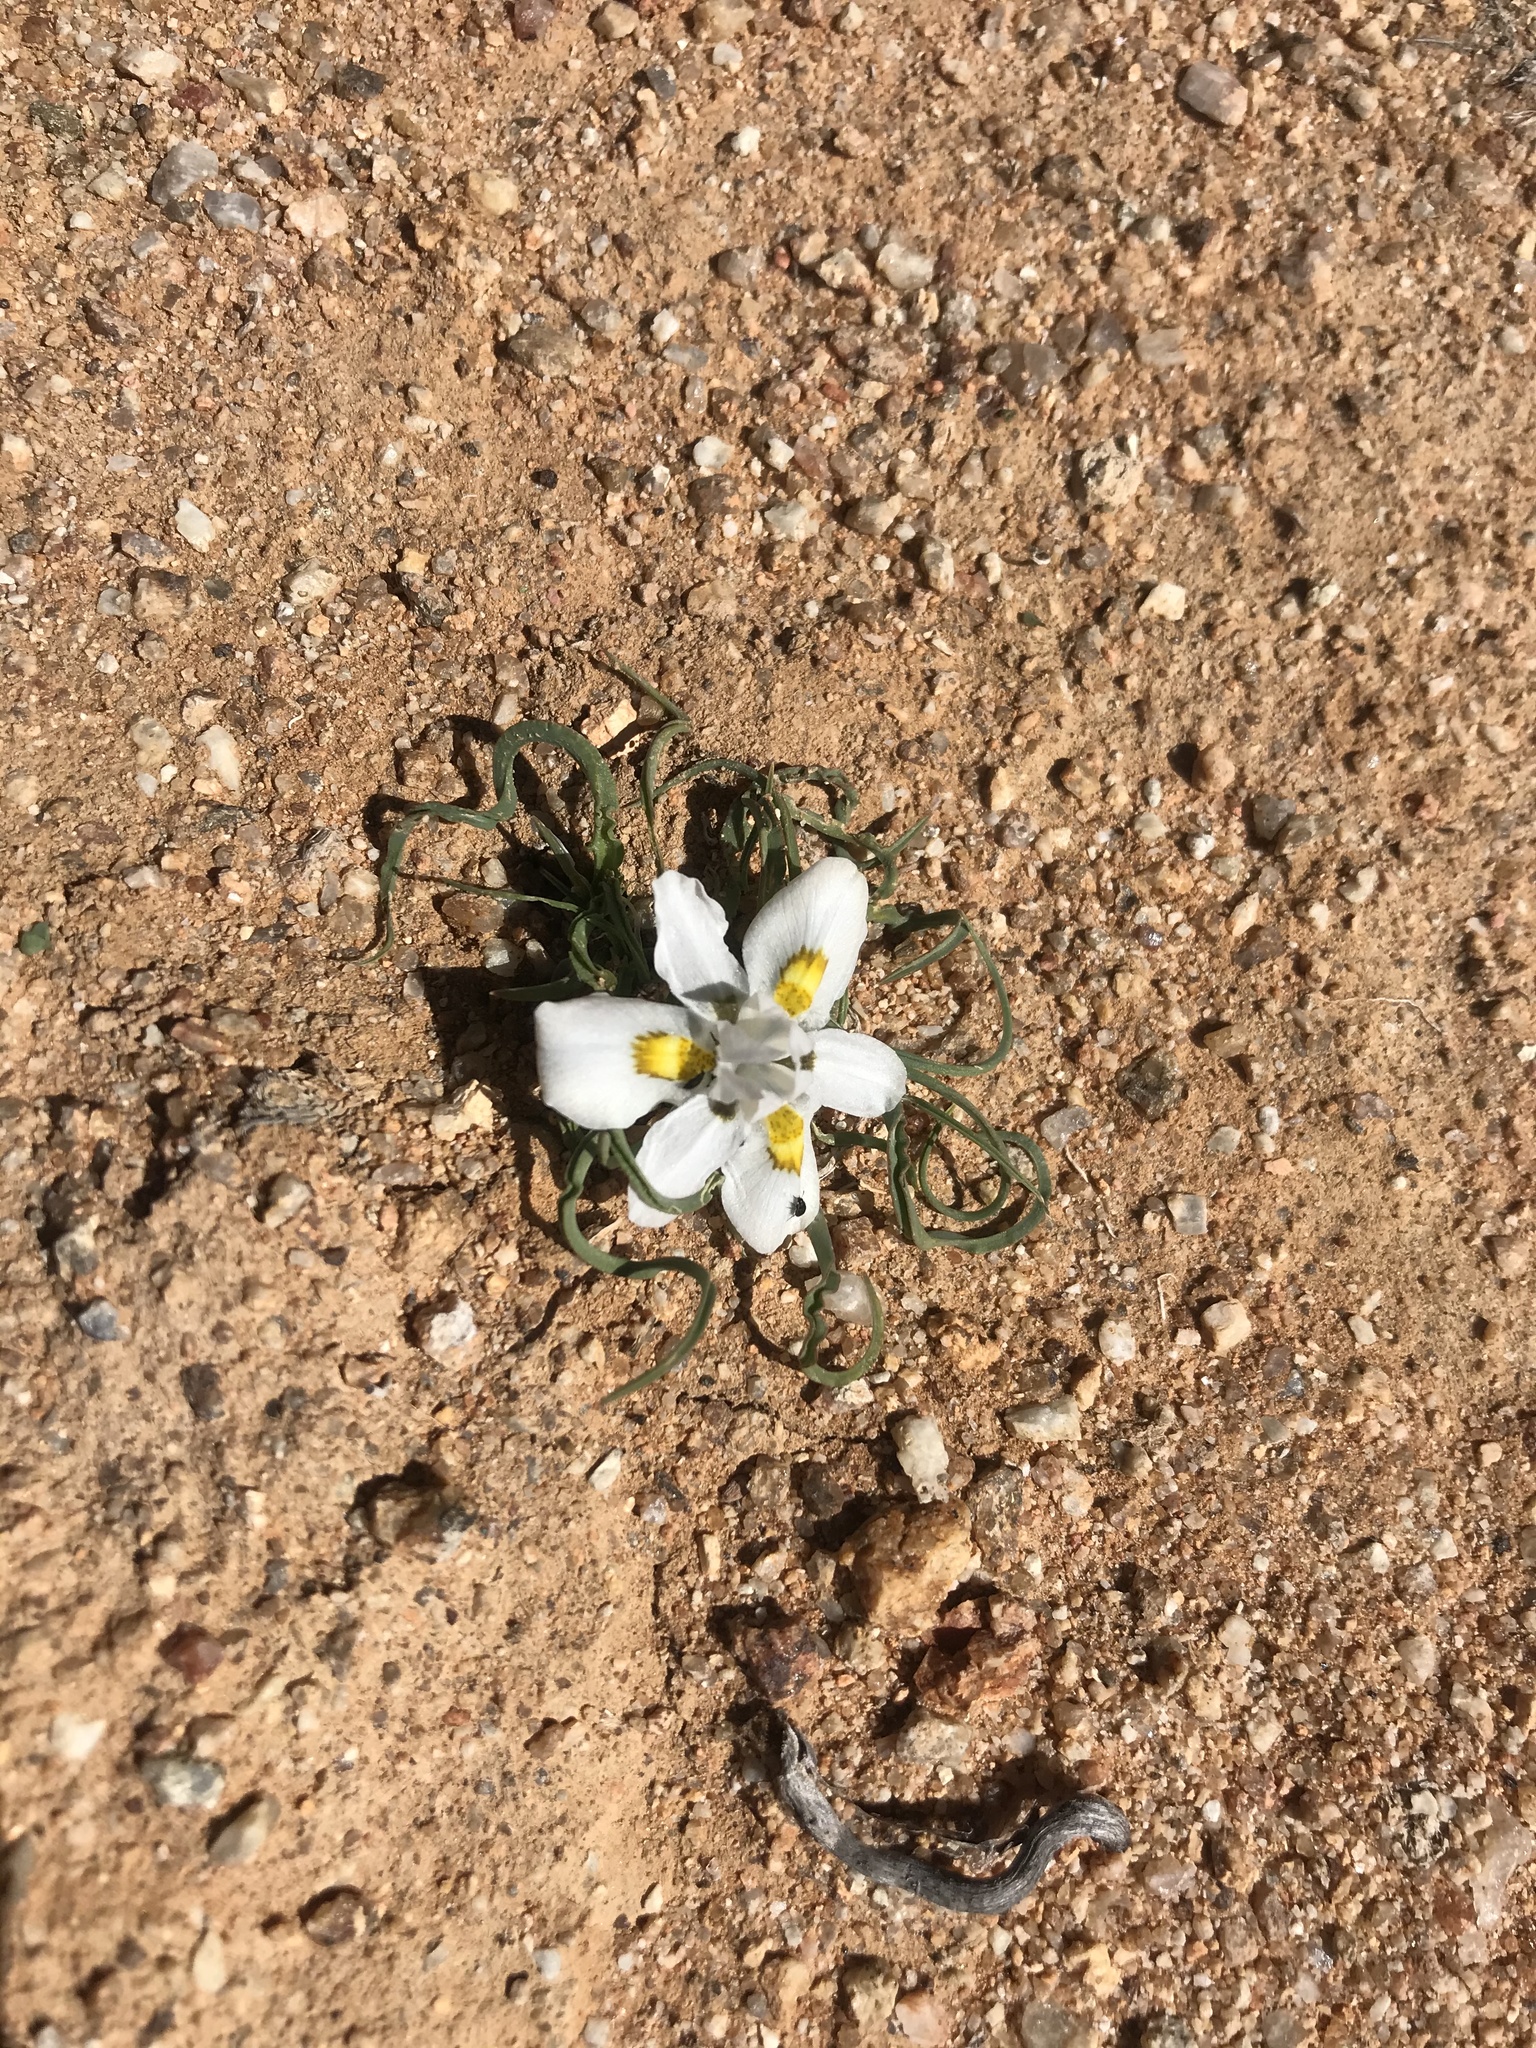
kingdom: Plantae
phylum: Tracheophyta
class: Liliopsida
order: Asparagales
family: Iridaceae
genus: Moraea
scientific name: Moraea falcifolia
